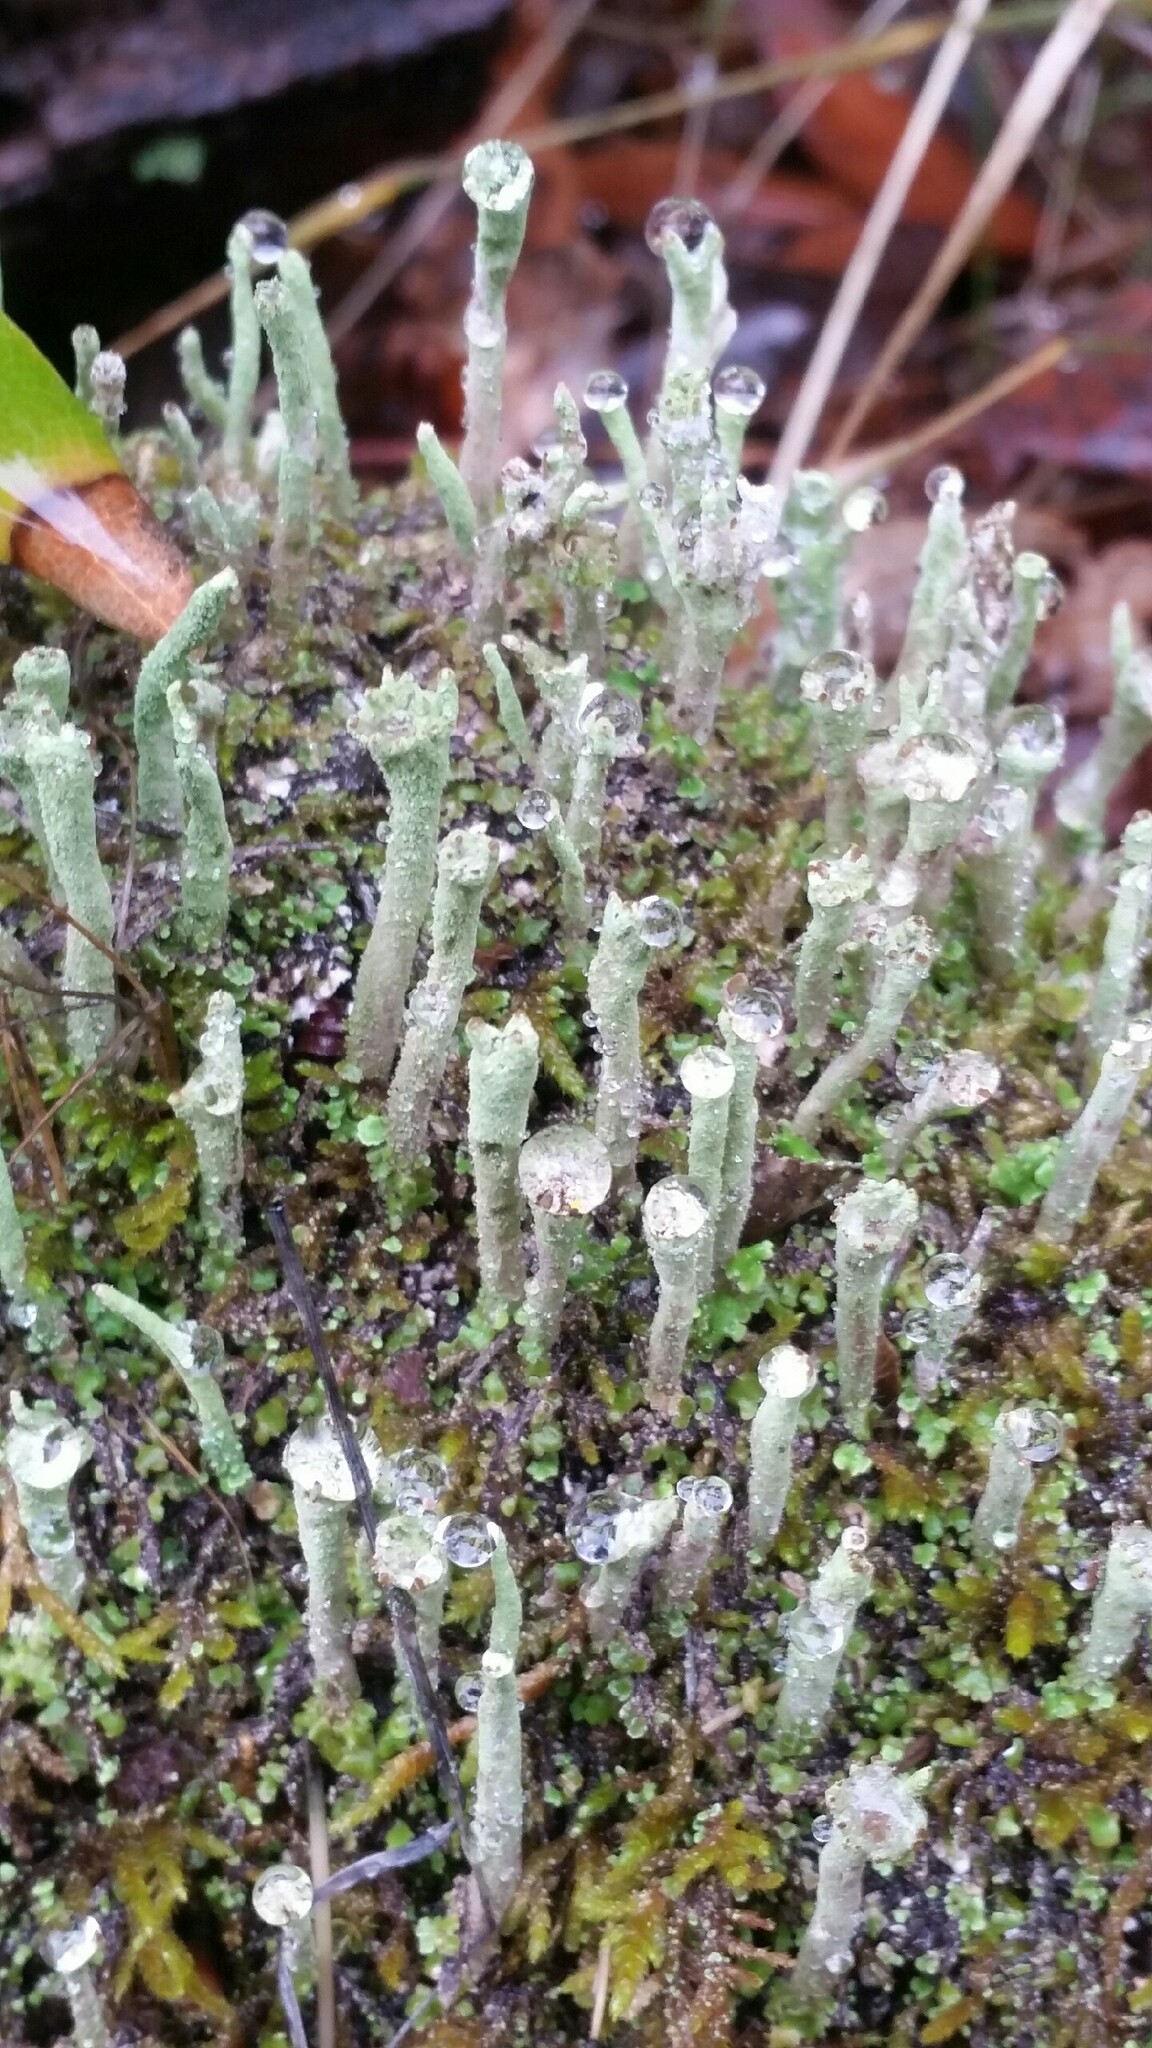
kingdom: Fungi
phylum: Ascomycota
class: Lecanoromycetes
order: Lecanorales
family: Cladoniaceae
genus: Cladonia
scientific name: Cladonia fimbriata
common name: Powdered trumpet lichen
